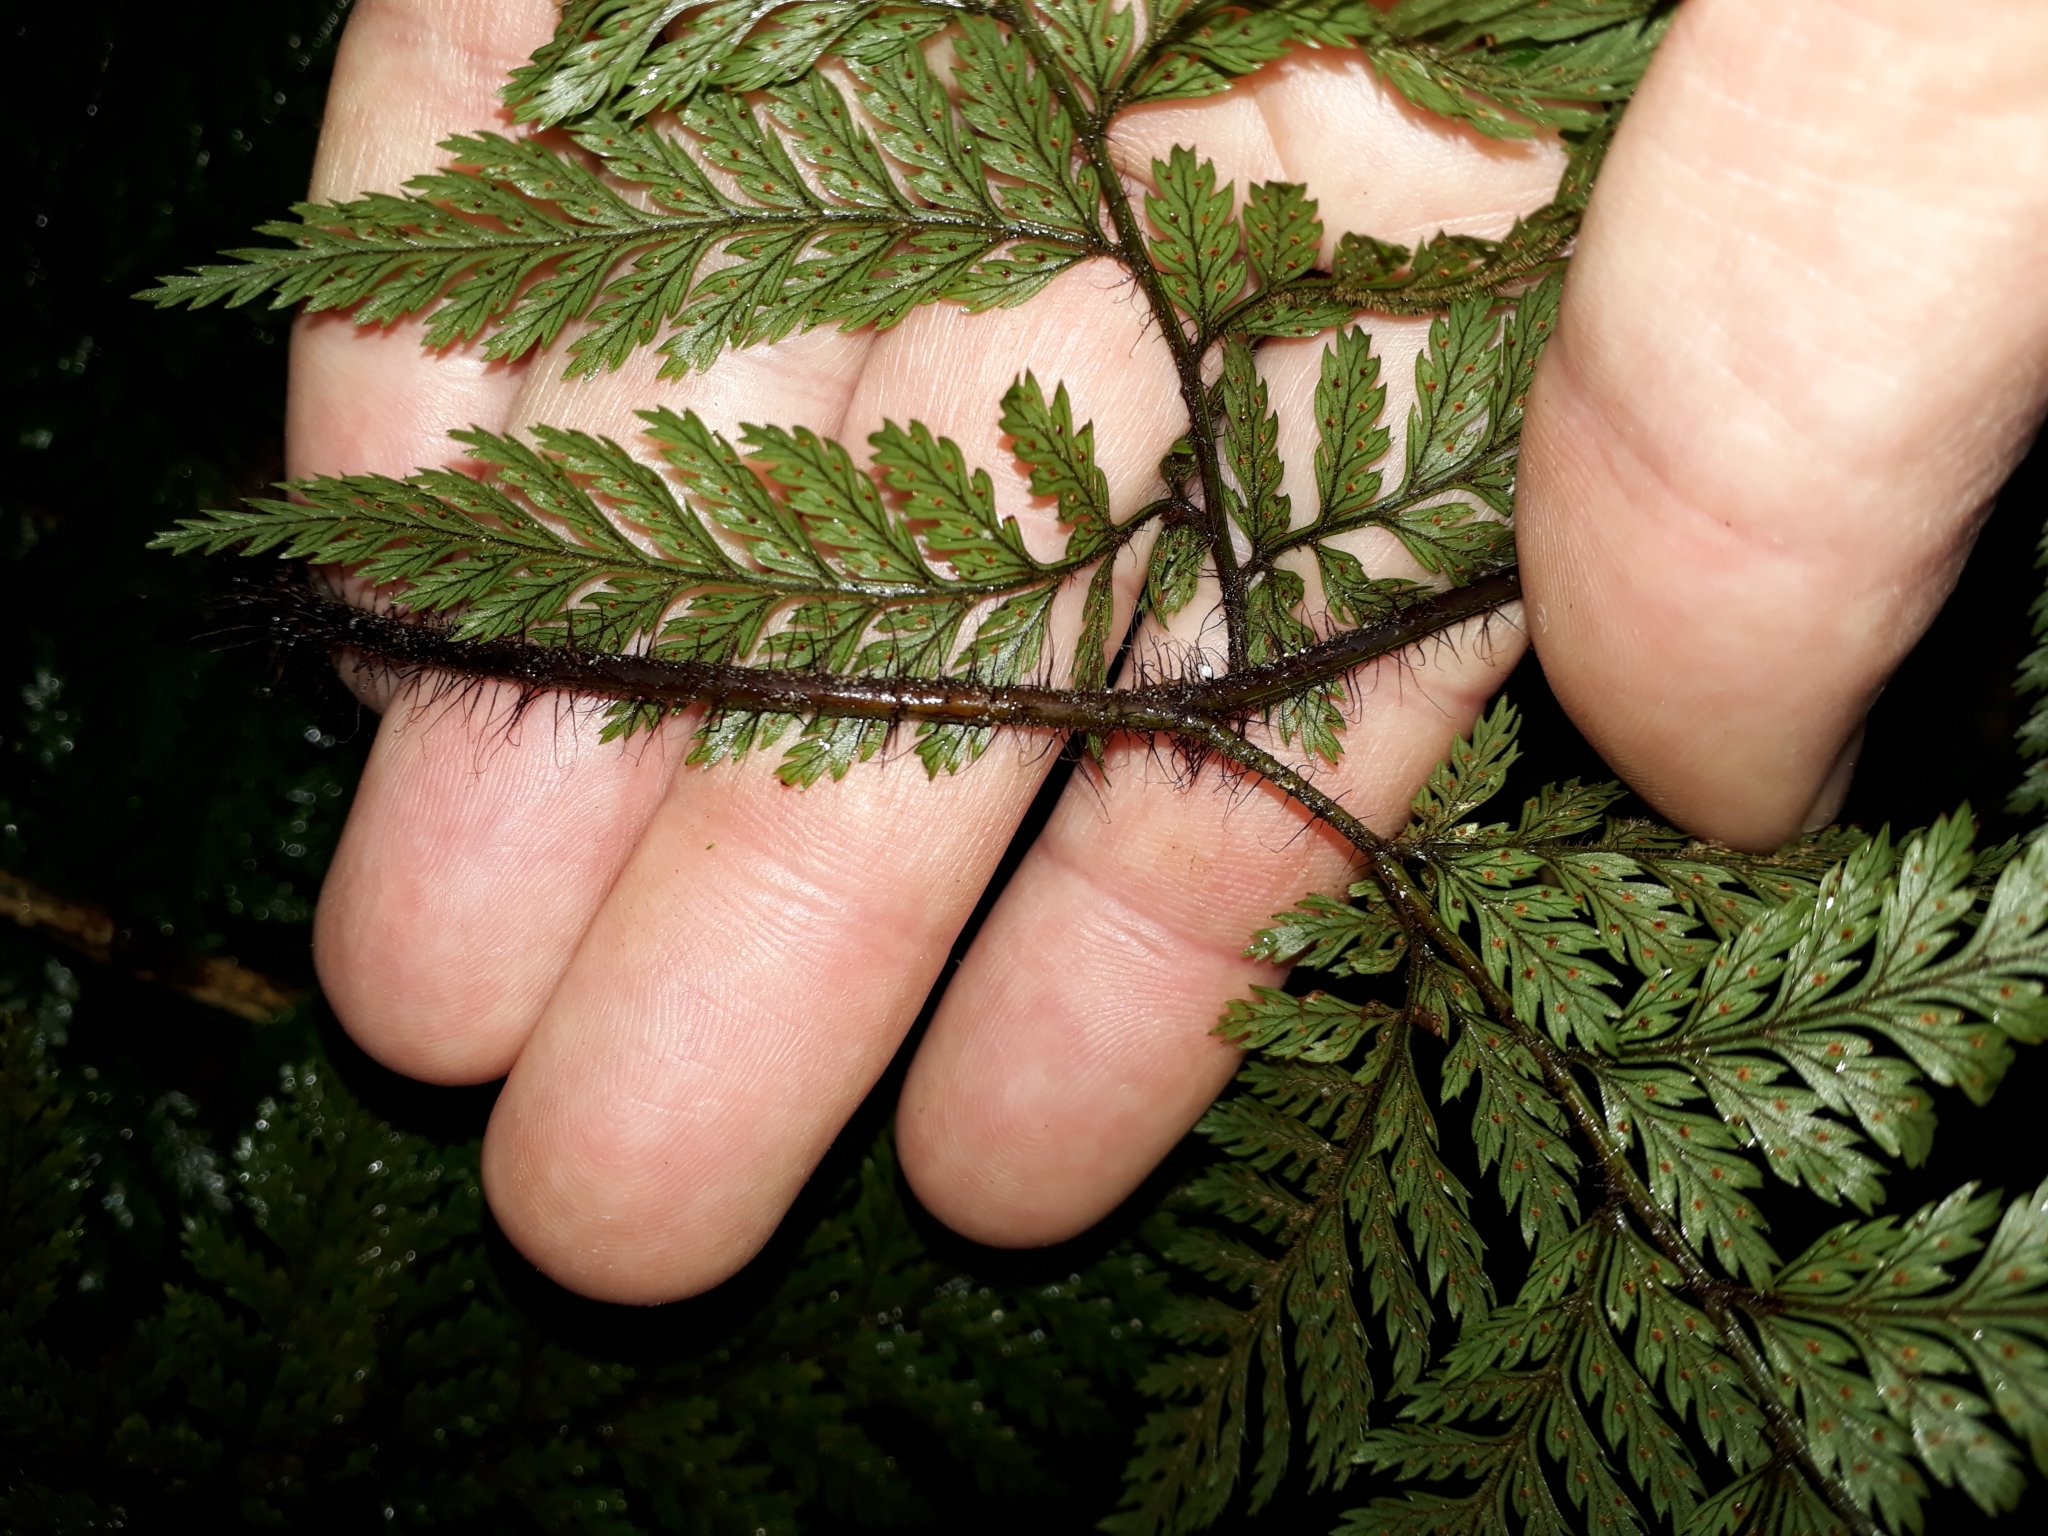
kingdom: Plantae
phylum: Tracheophyta
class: Polypodiopsida
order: Polypodiales
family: Dryopteridaceae
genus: Lastreopsis
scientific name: Lastreopsis hispida
